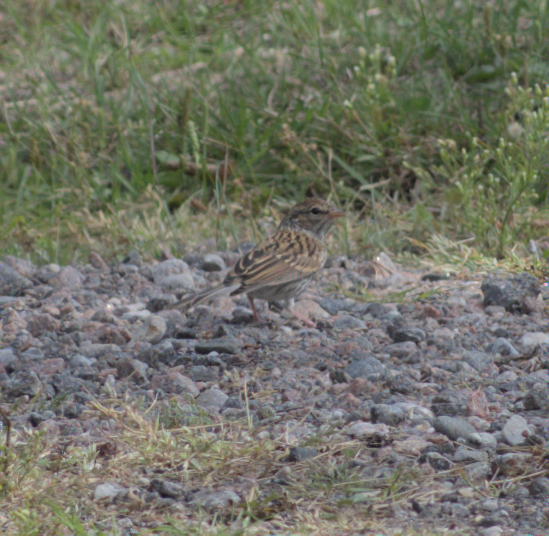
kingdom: Animalia
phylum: Chordata
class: Aves
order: Passeriformes
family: Passerellidae
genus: Spizella
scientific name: Spizella passerina
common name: Chipping sparrow
